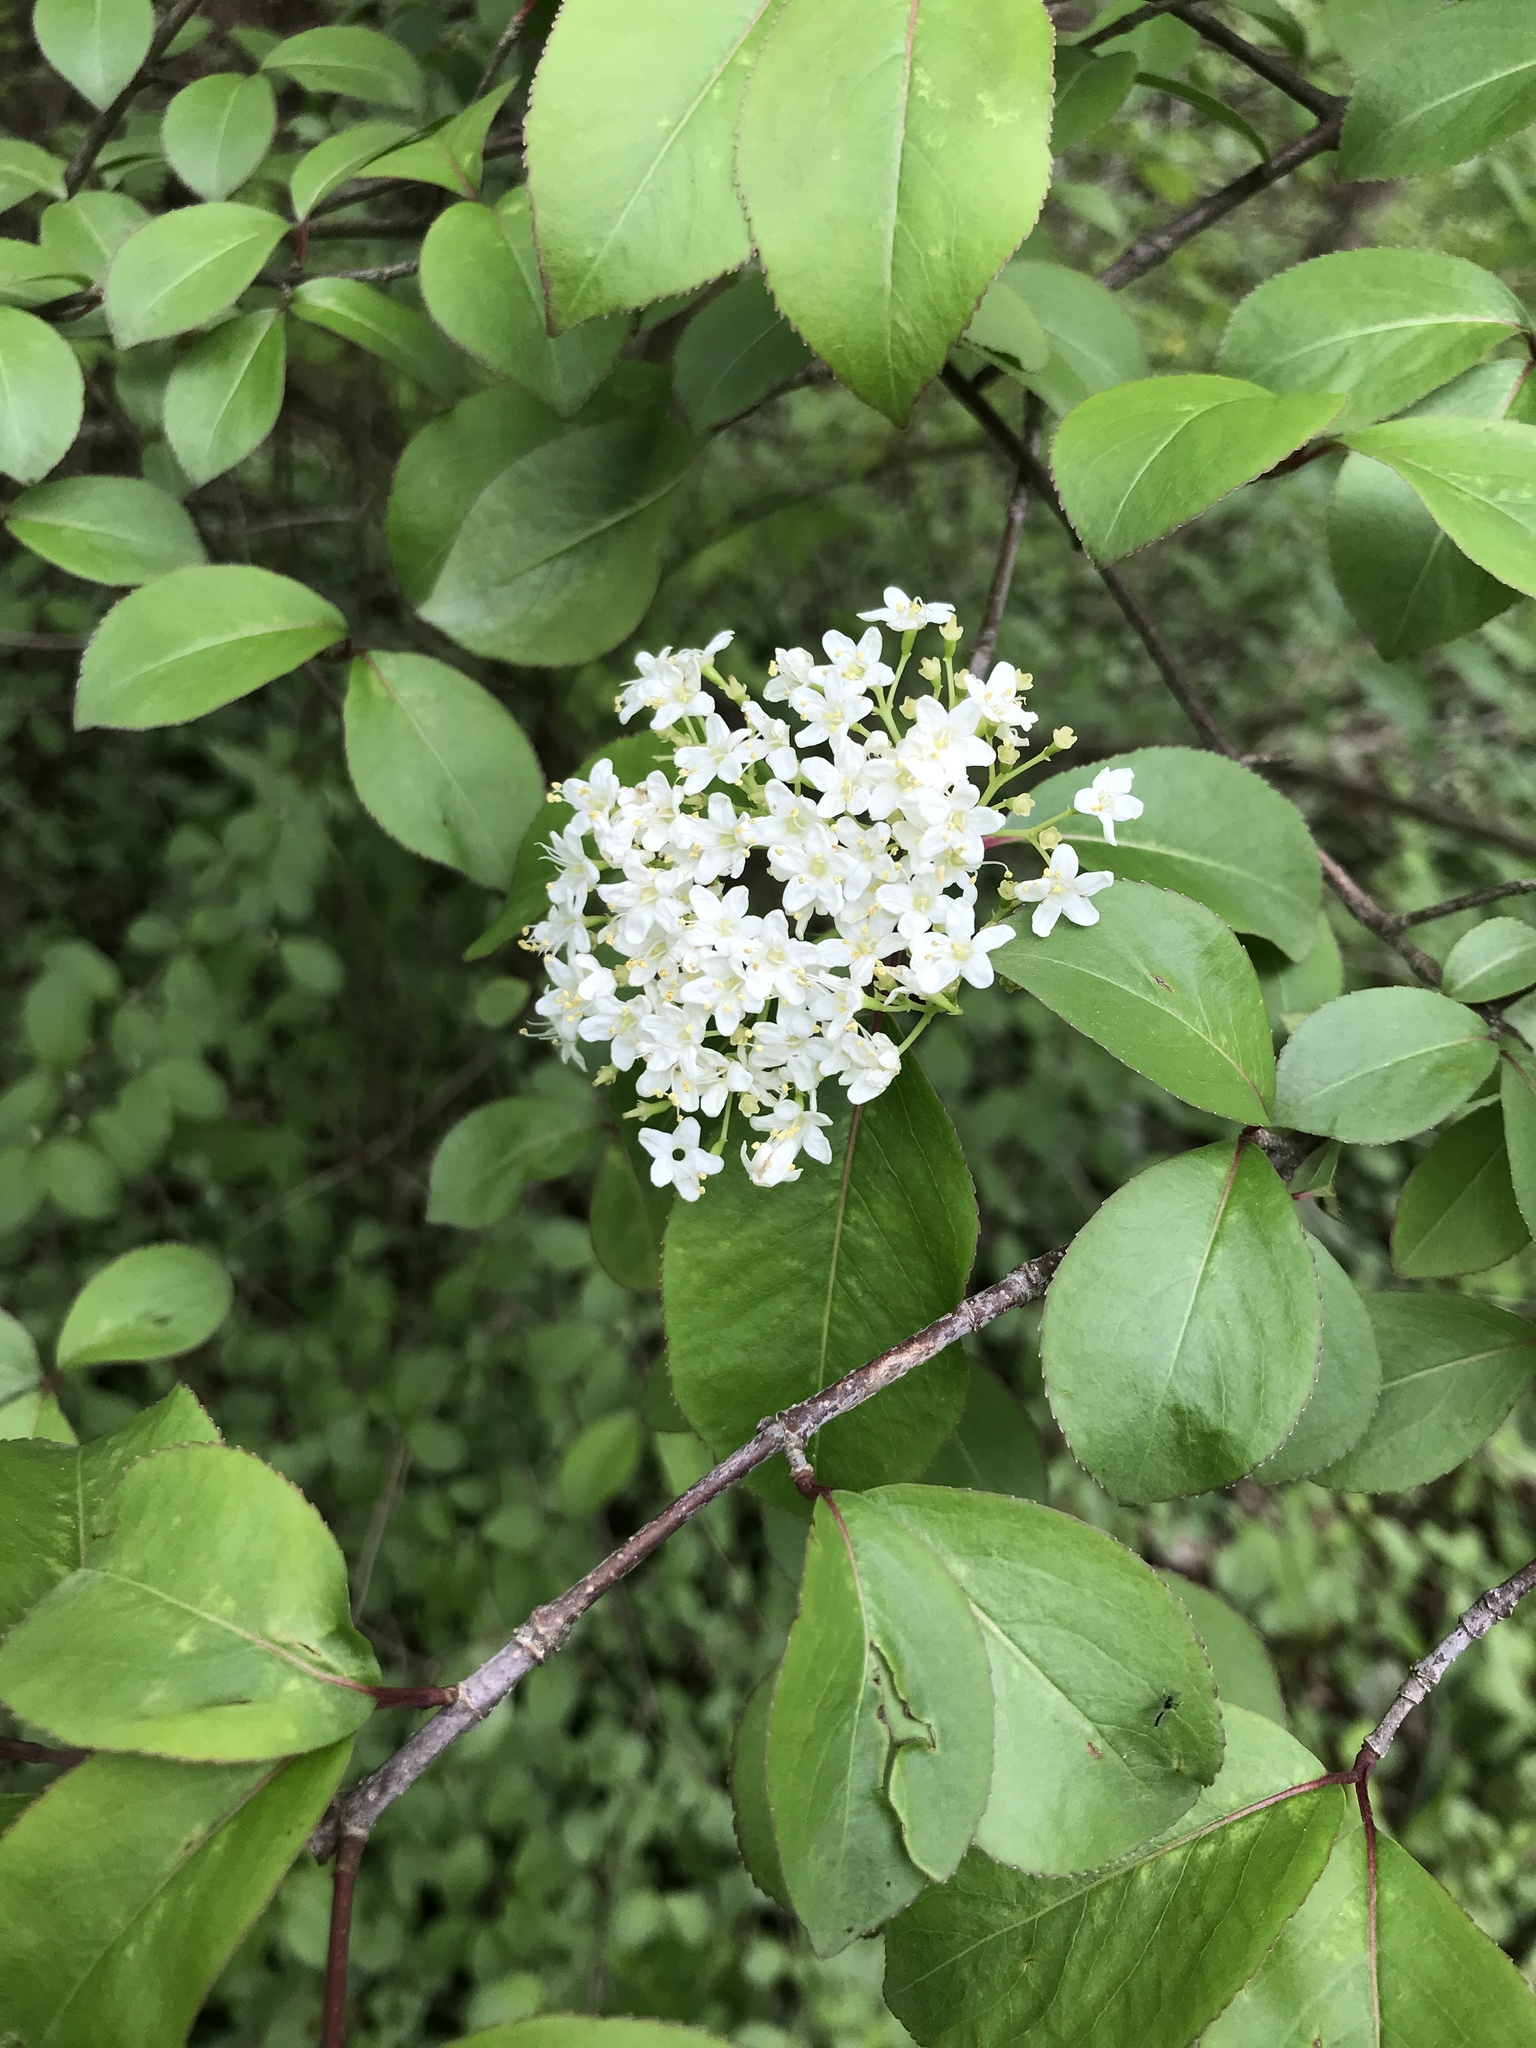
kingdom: Plantae
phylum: Tracheophyta
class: Magnoliopsida
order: Dipsacales
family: Viburnaceae
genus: Viburnum
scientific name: Viburnum prunifolium
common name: Black haw
